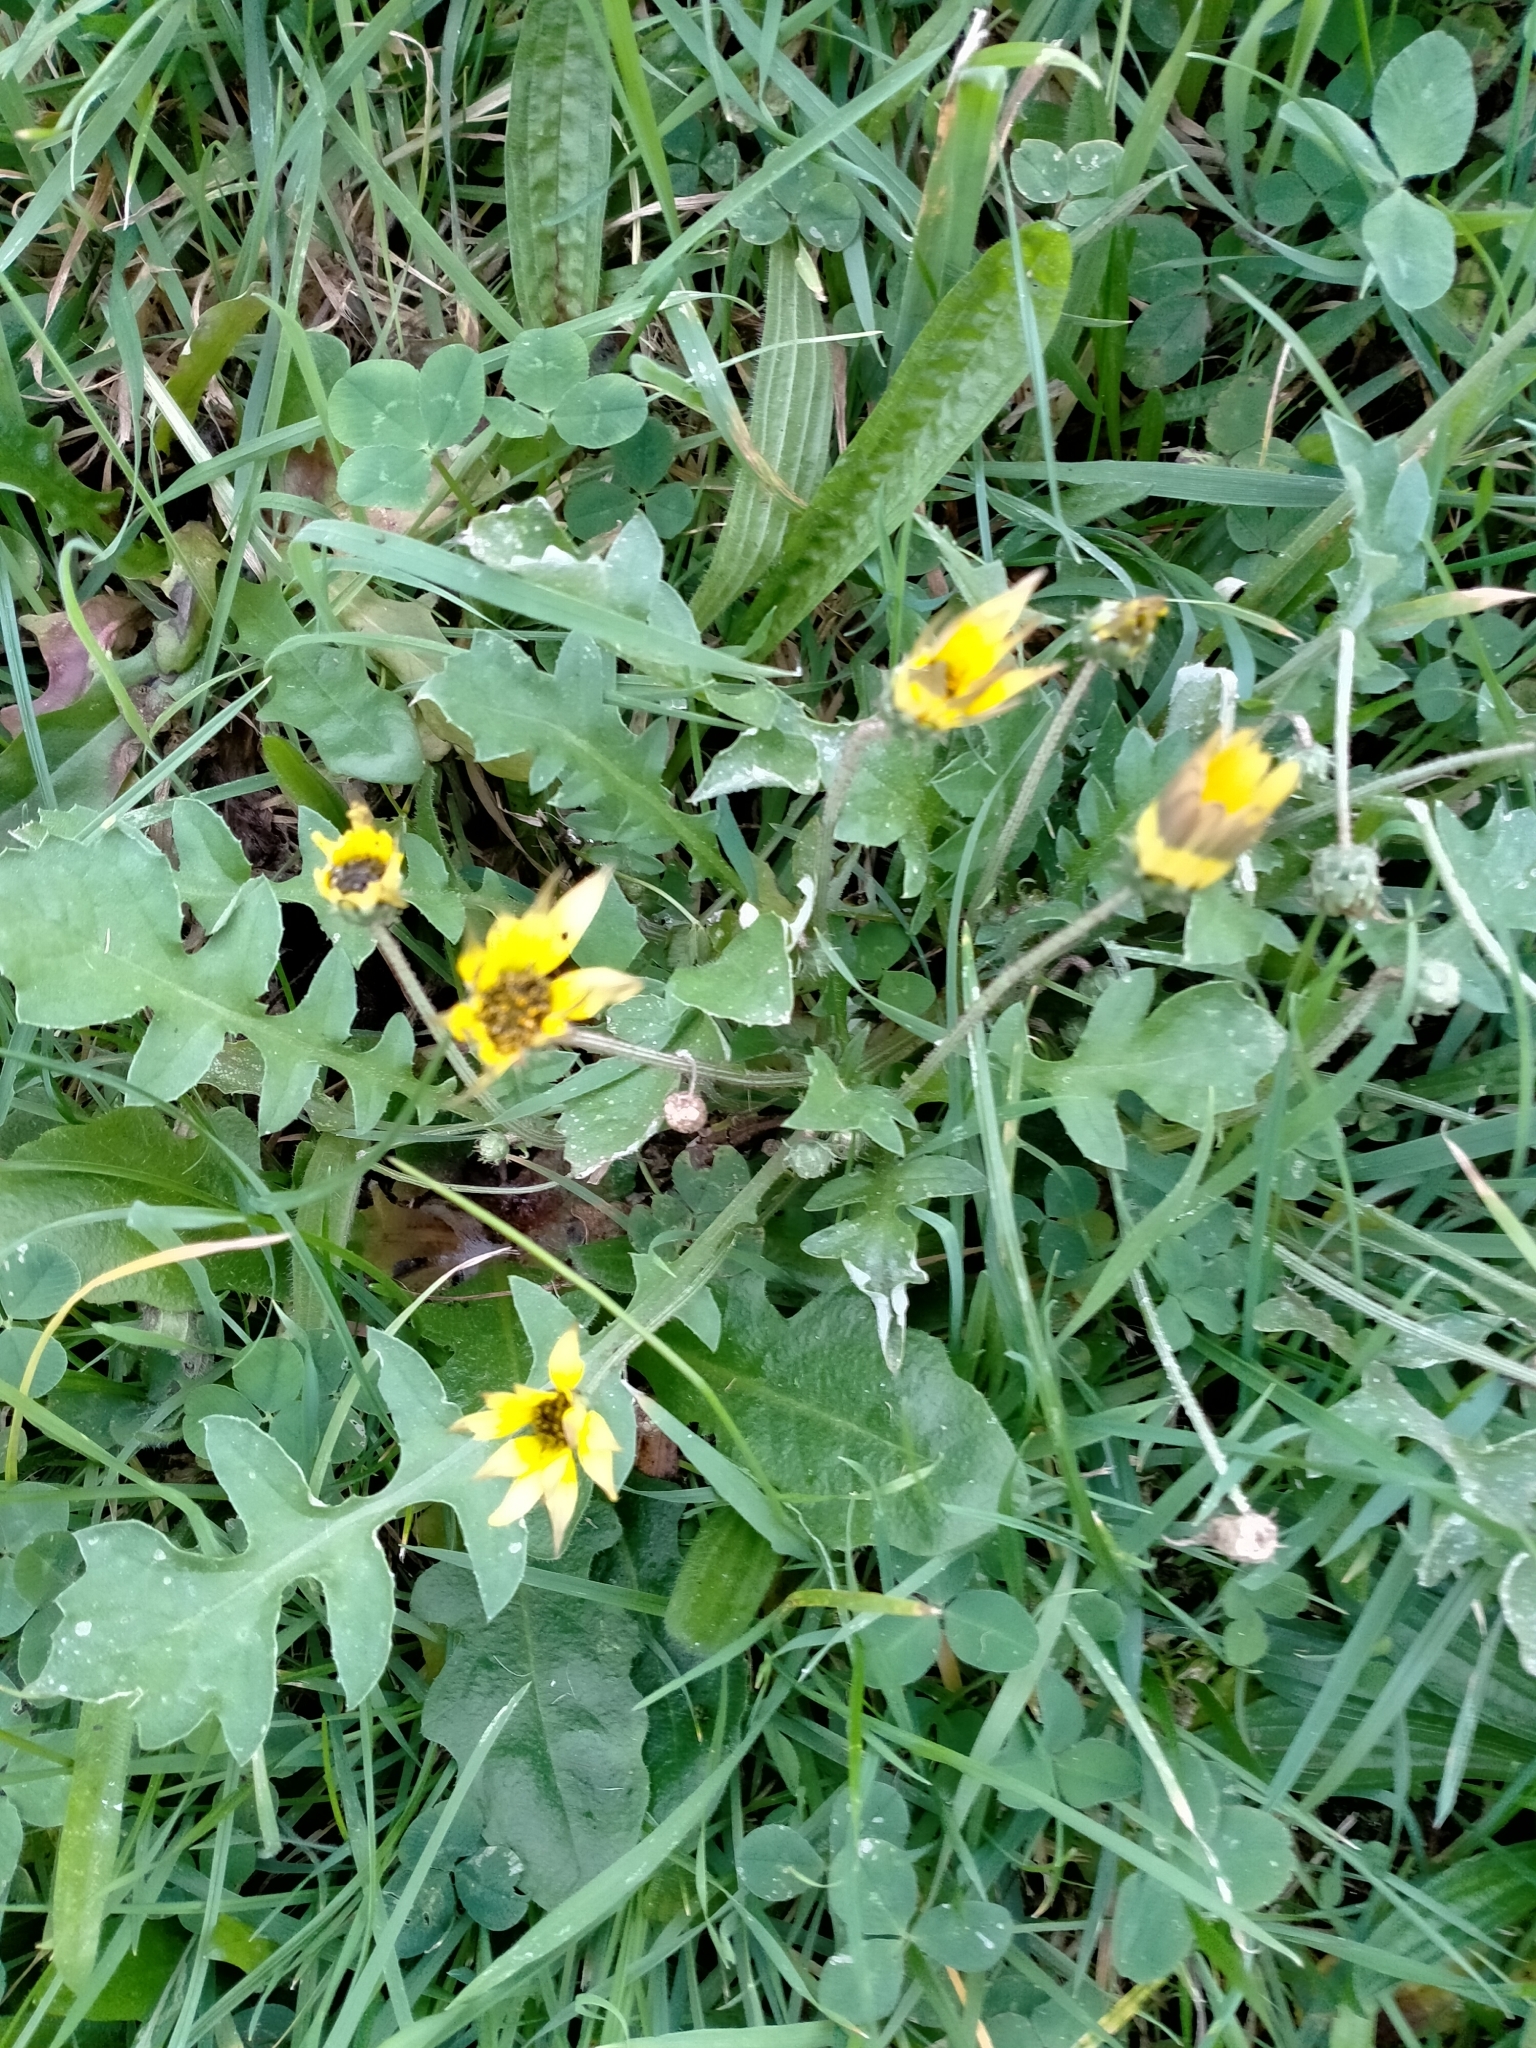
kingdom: Plantae
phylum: Tracheophyta
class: Magnoliopsida
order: Asterales
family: Asteraceae
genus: Arctotheca
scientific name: Arctotheca calendula
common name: Capeweed
